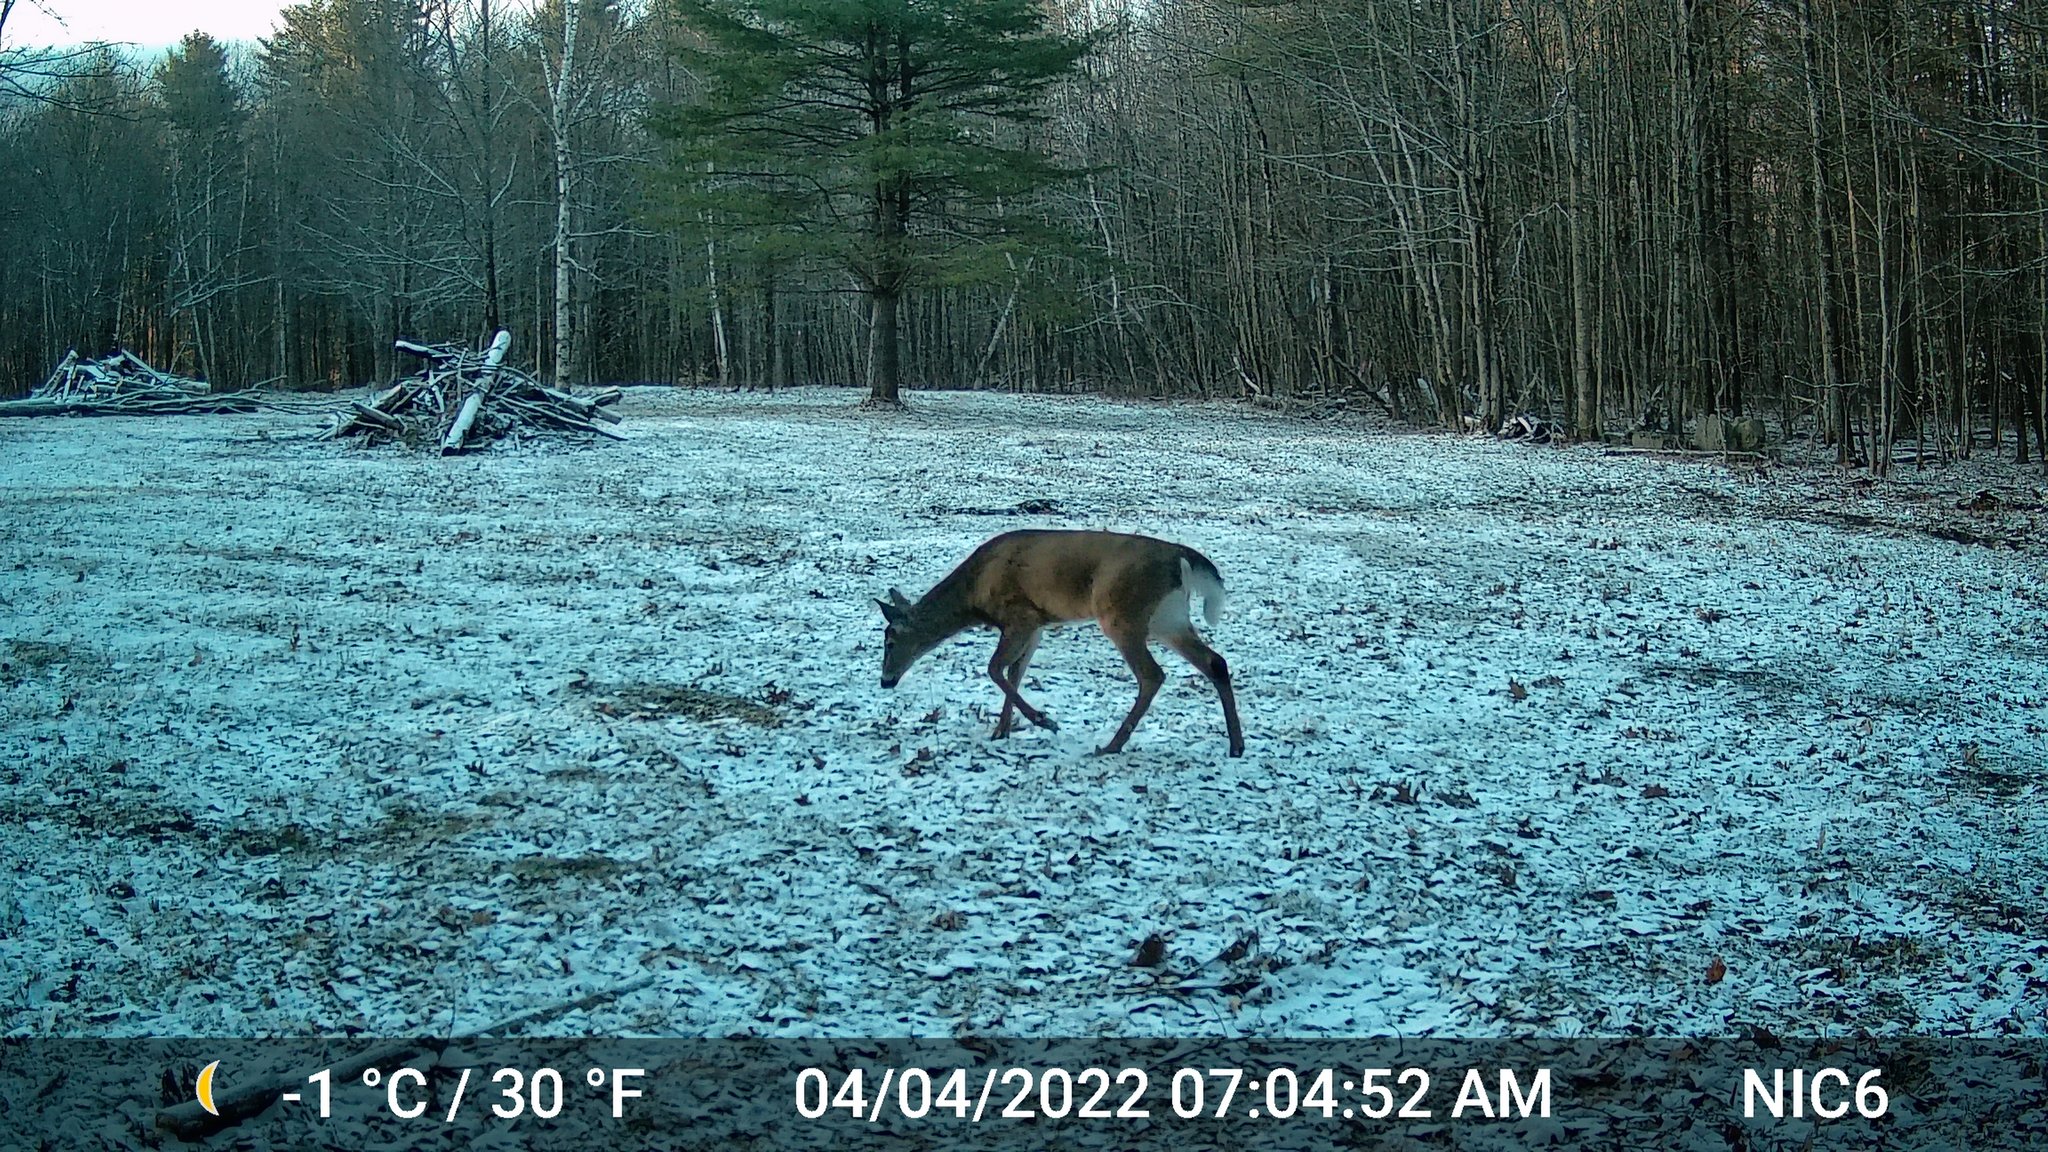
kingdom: Animalia
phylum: Chordata
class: Mammalia
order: Artiodactyla
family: Cervidae
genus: Odocoileus
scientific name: Odocoileus virginianus
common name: White-tailed deer
